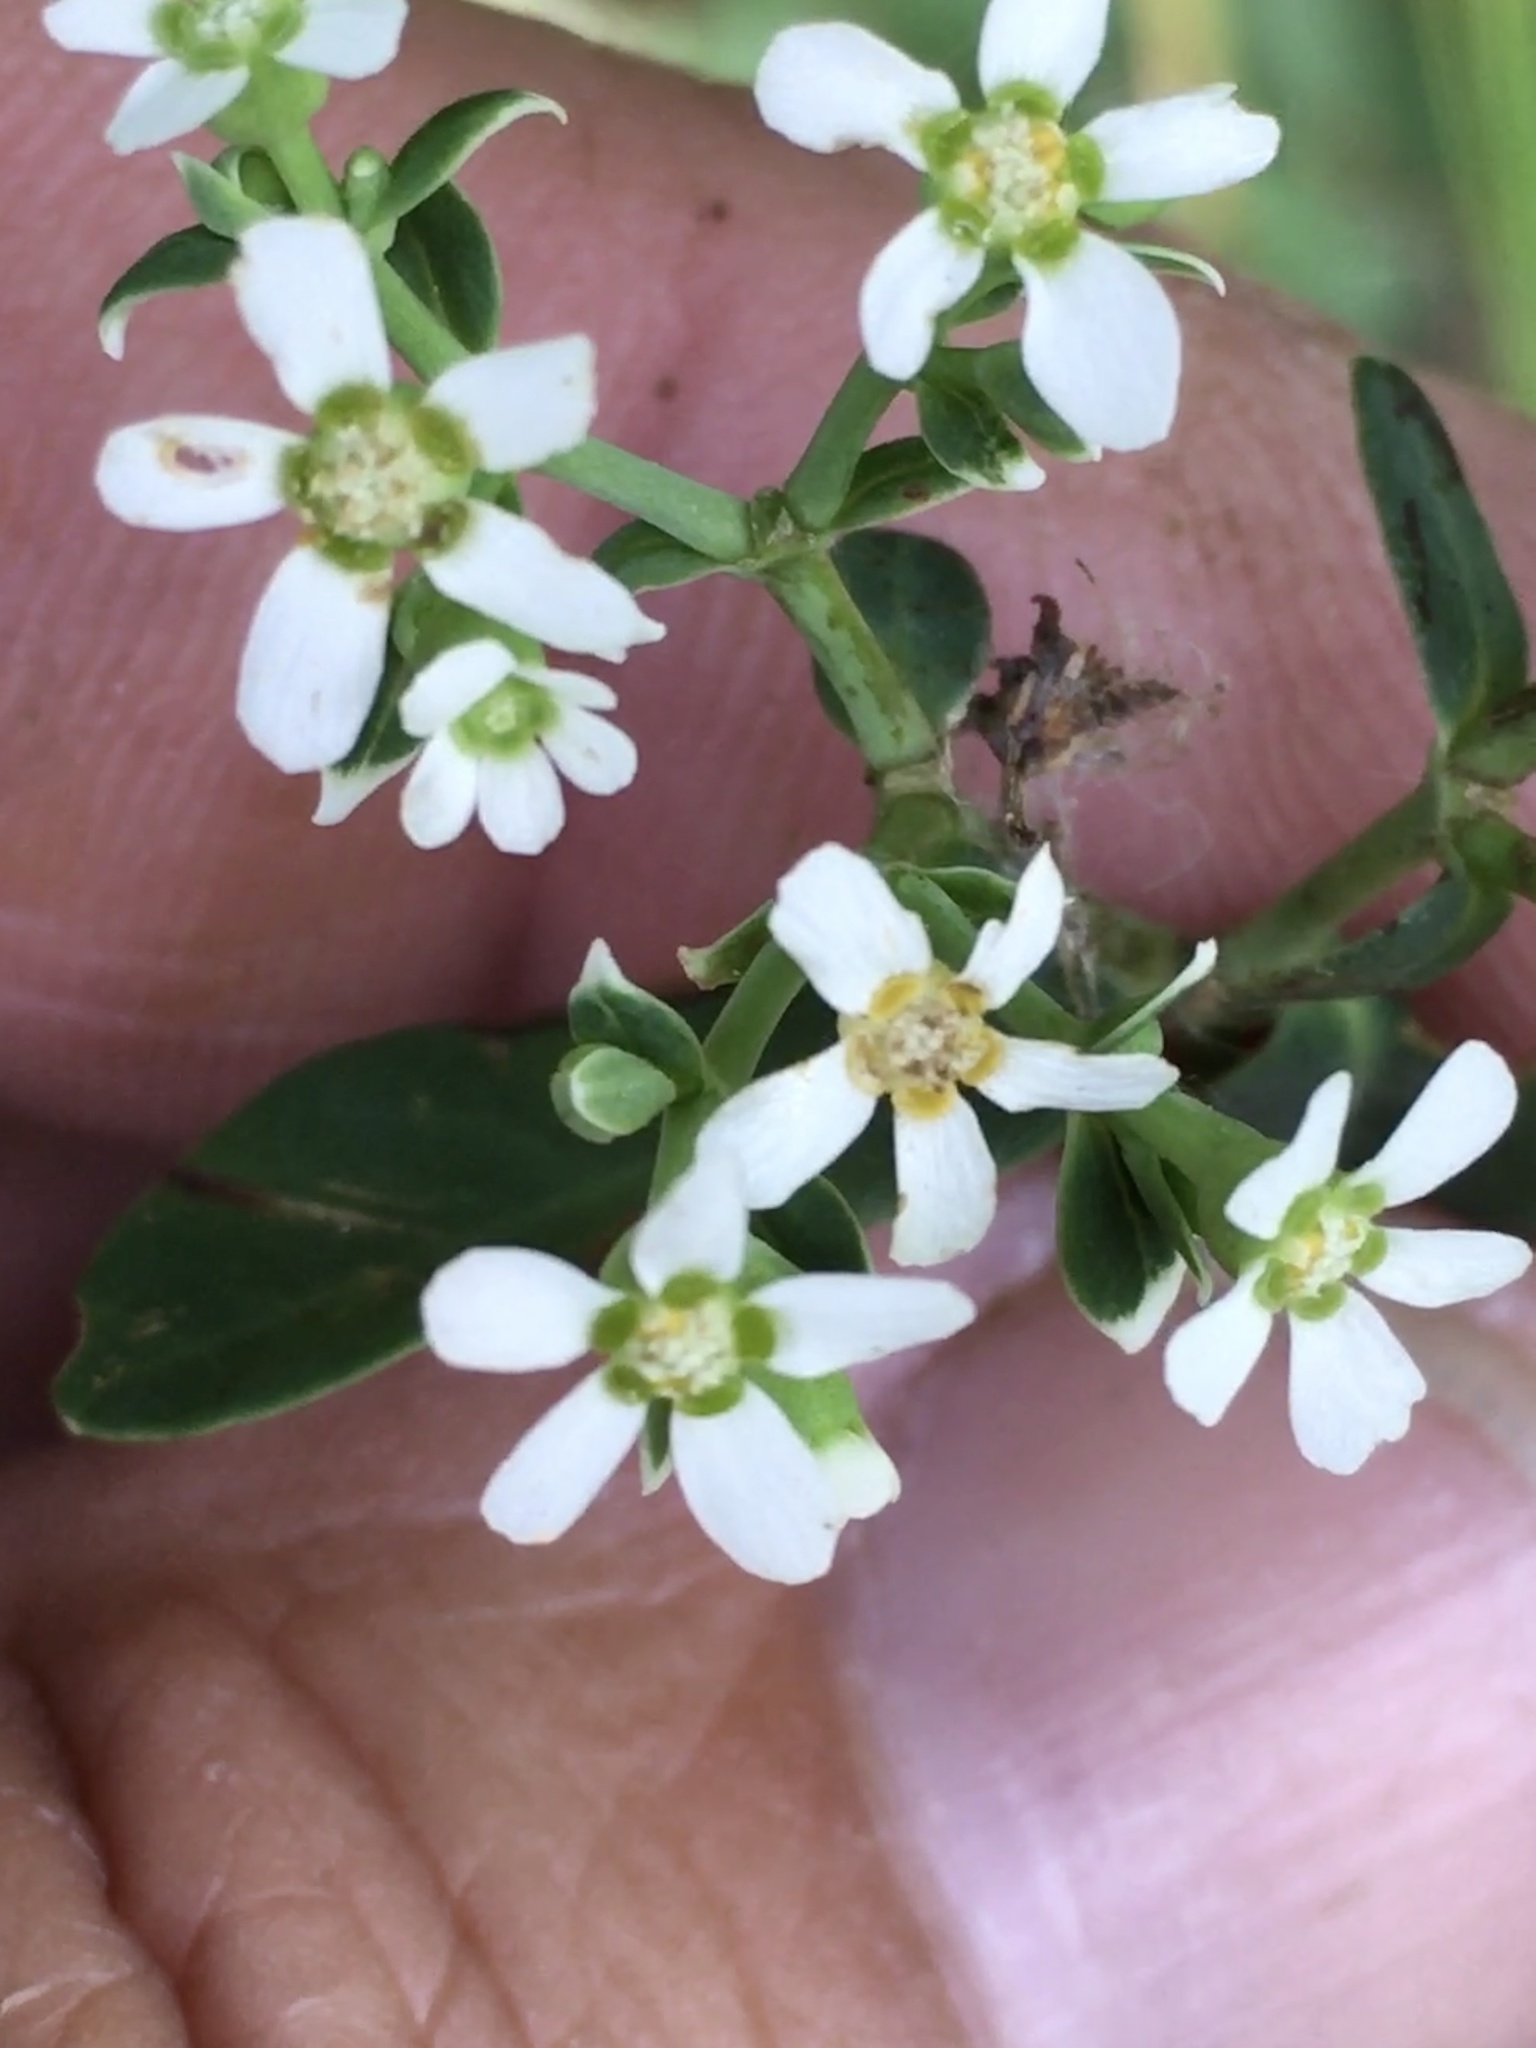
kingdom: Plantae
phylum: Tracheophyta
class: Magnoliopsida
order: Malpighiales
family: Euphorbiaceae
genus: Euphorbia
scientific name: Euphorbia corollata
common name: Flowering spurge
